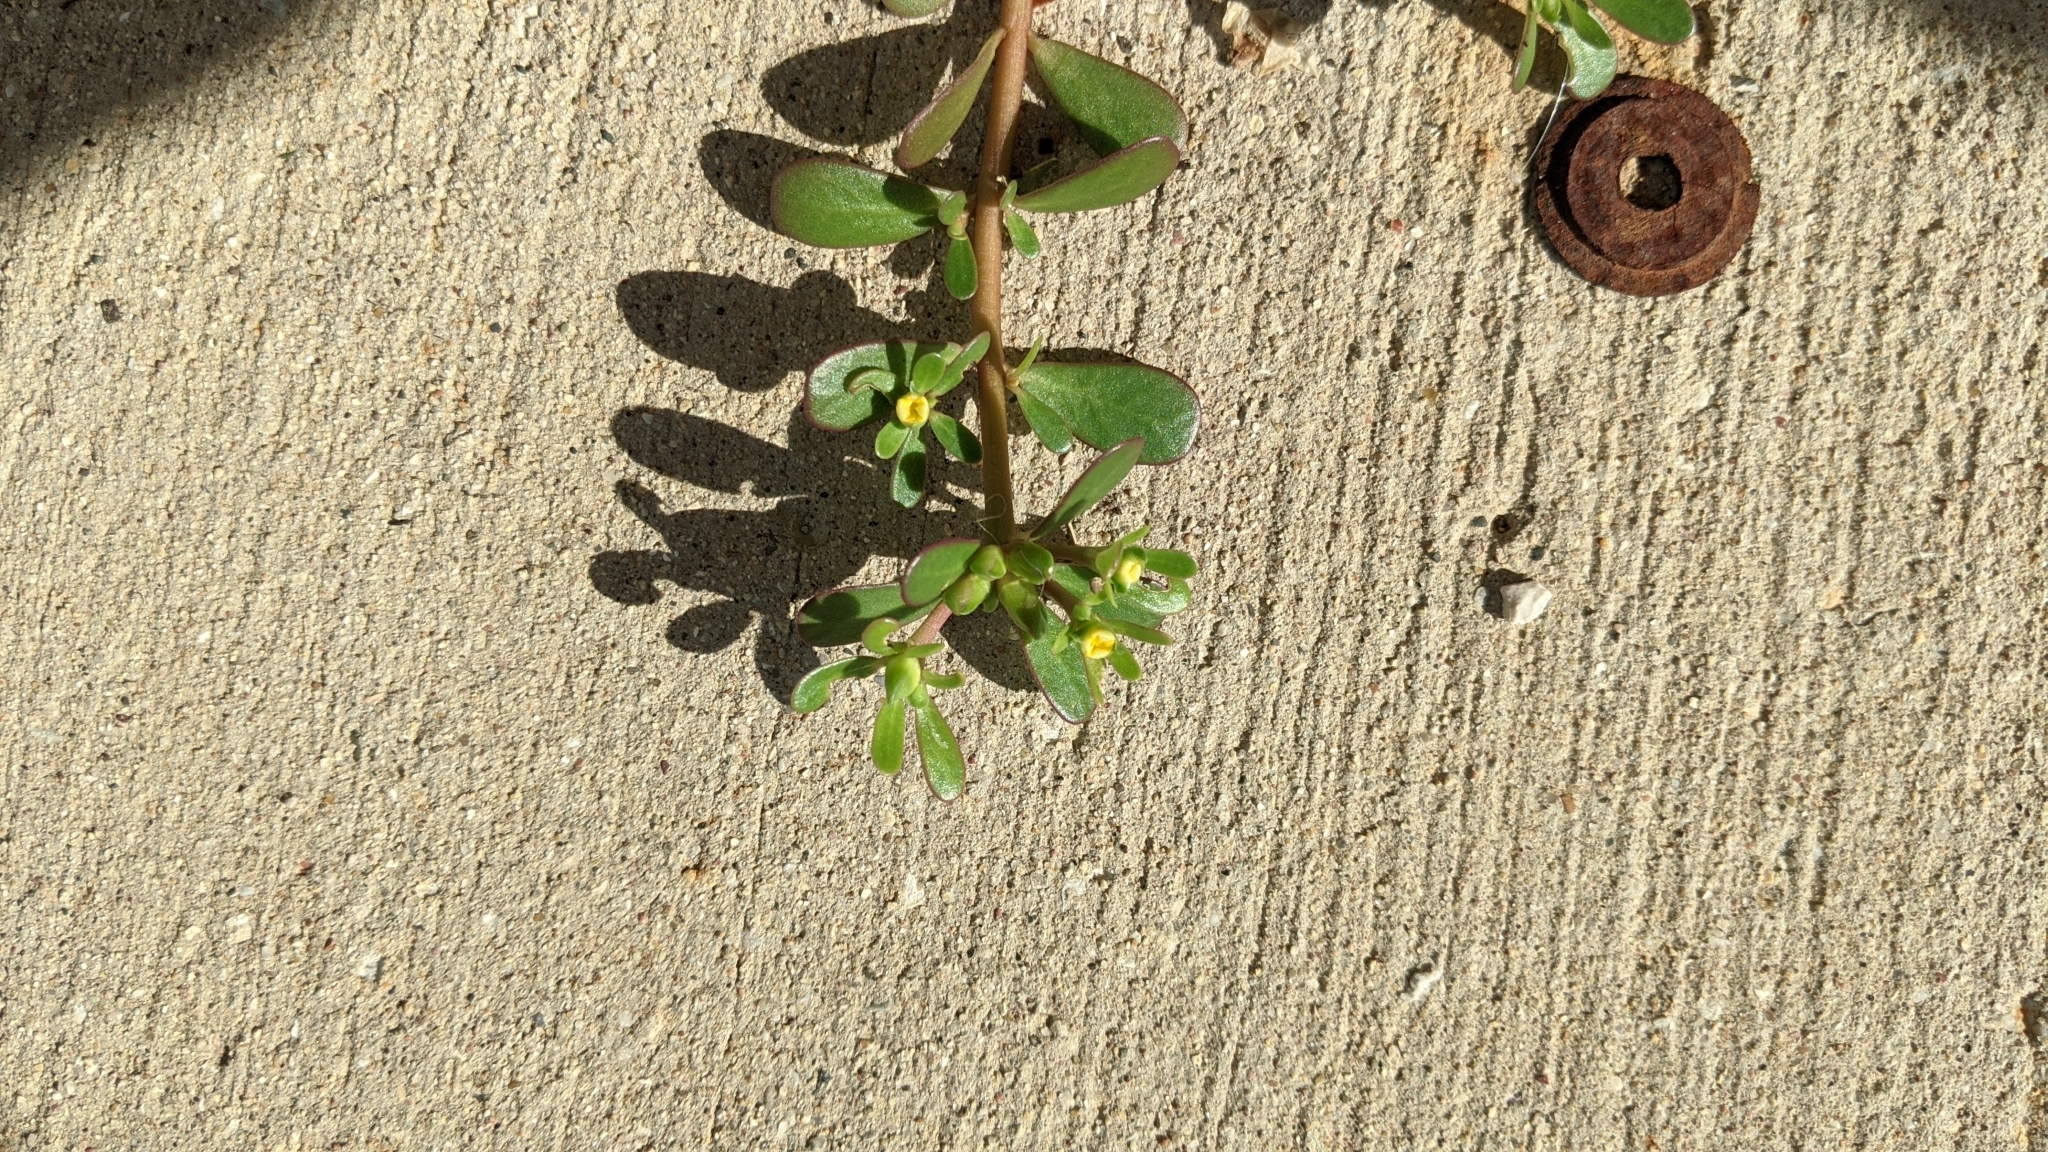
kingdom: Plantae
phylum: Tracheophyta
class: Magnoliopsida
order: Caryophyllales
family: Portulacaceae
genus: Portulaca
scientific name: Portulaca oleracea
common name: Common purslane
